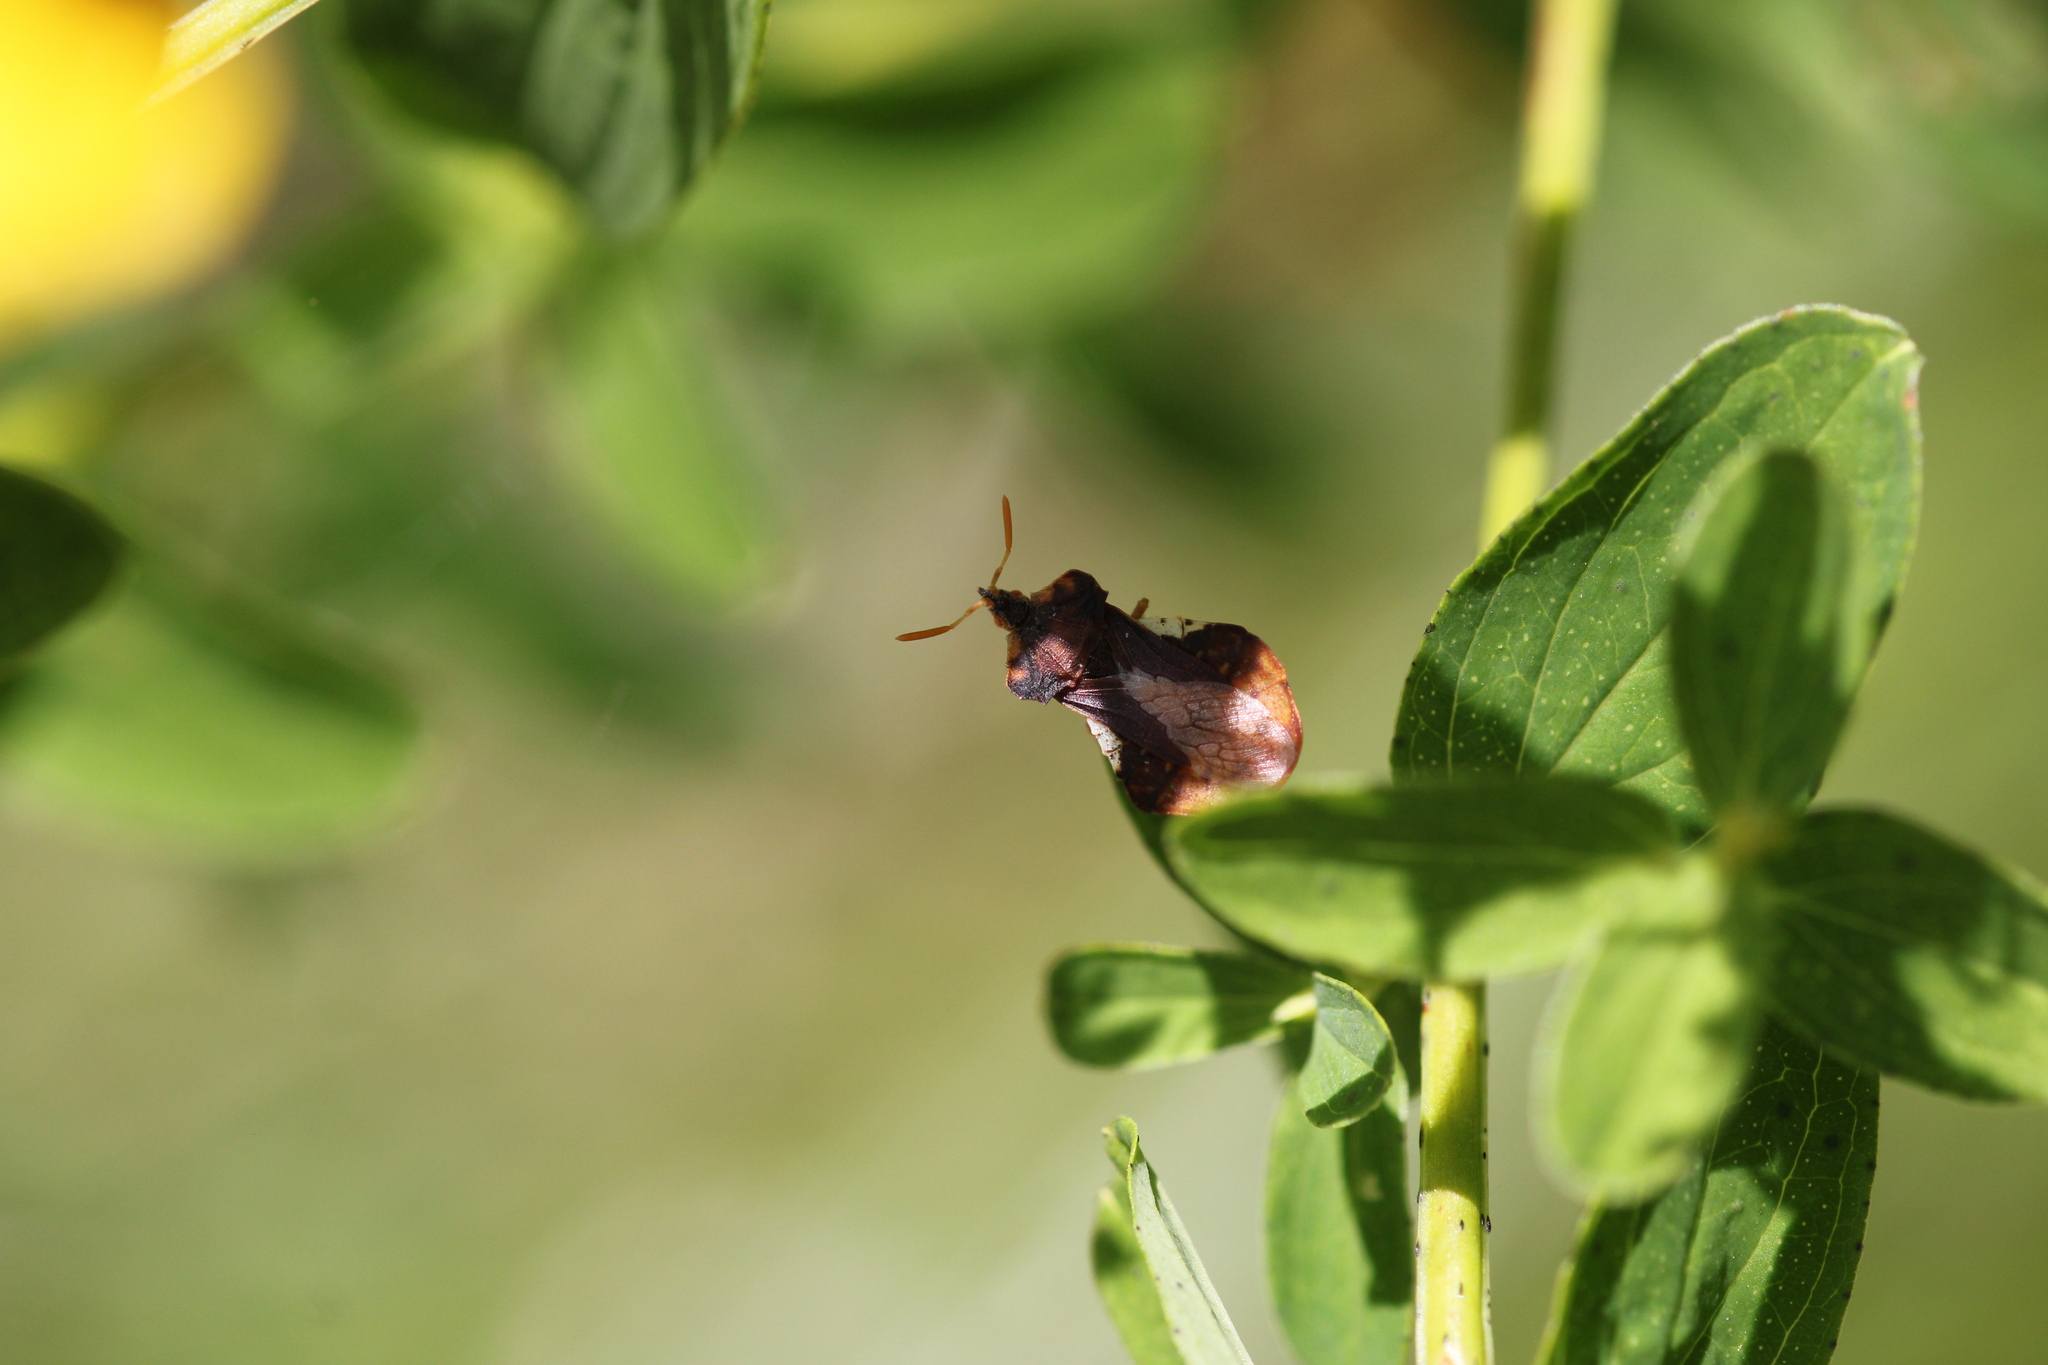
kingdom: Animalia
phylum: Arthropoda
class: Insecta
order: Hemiptera
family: Reduviidae
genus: Phymata
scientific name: Phymata crassipes
